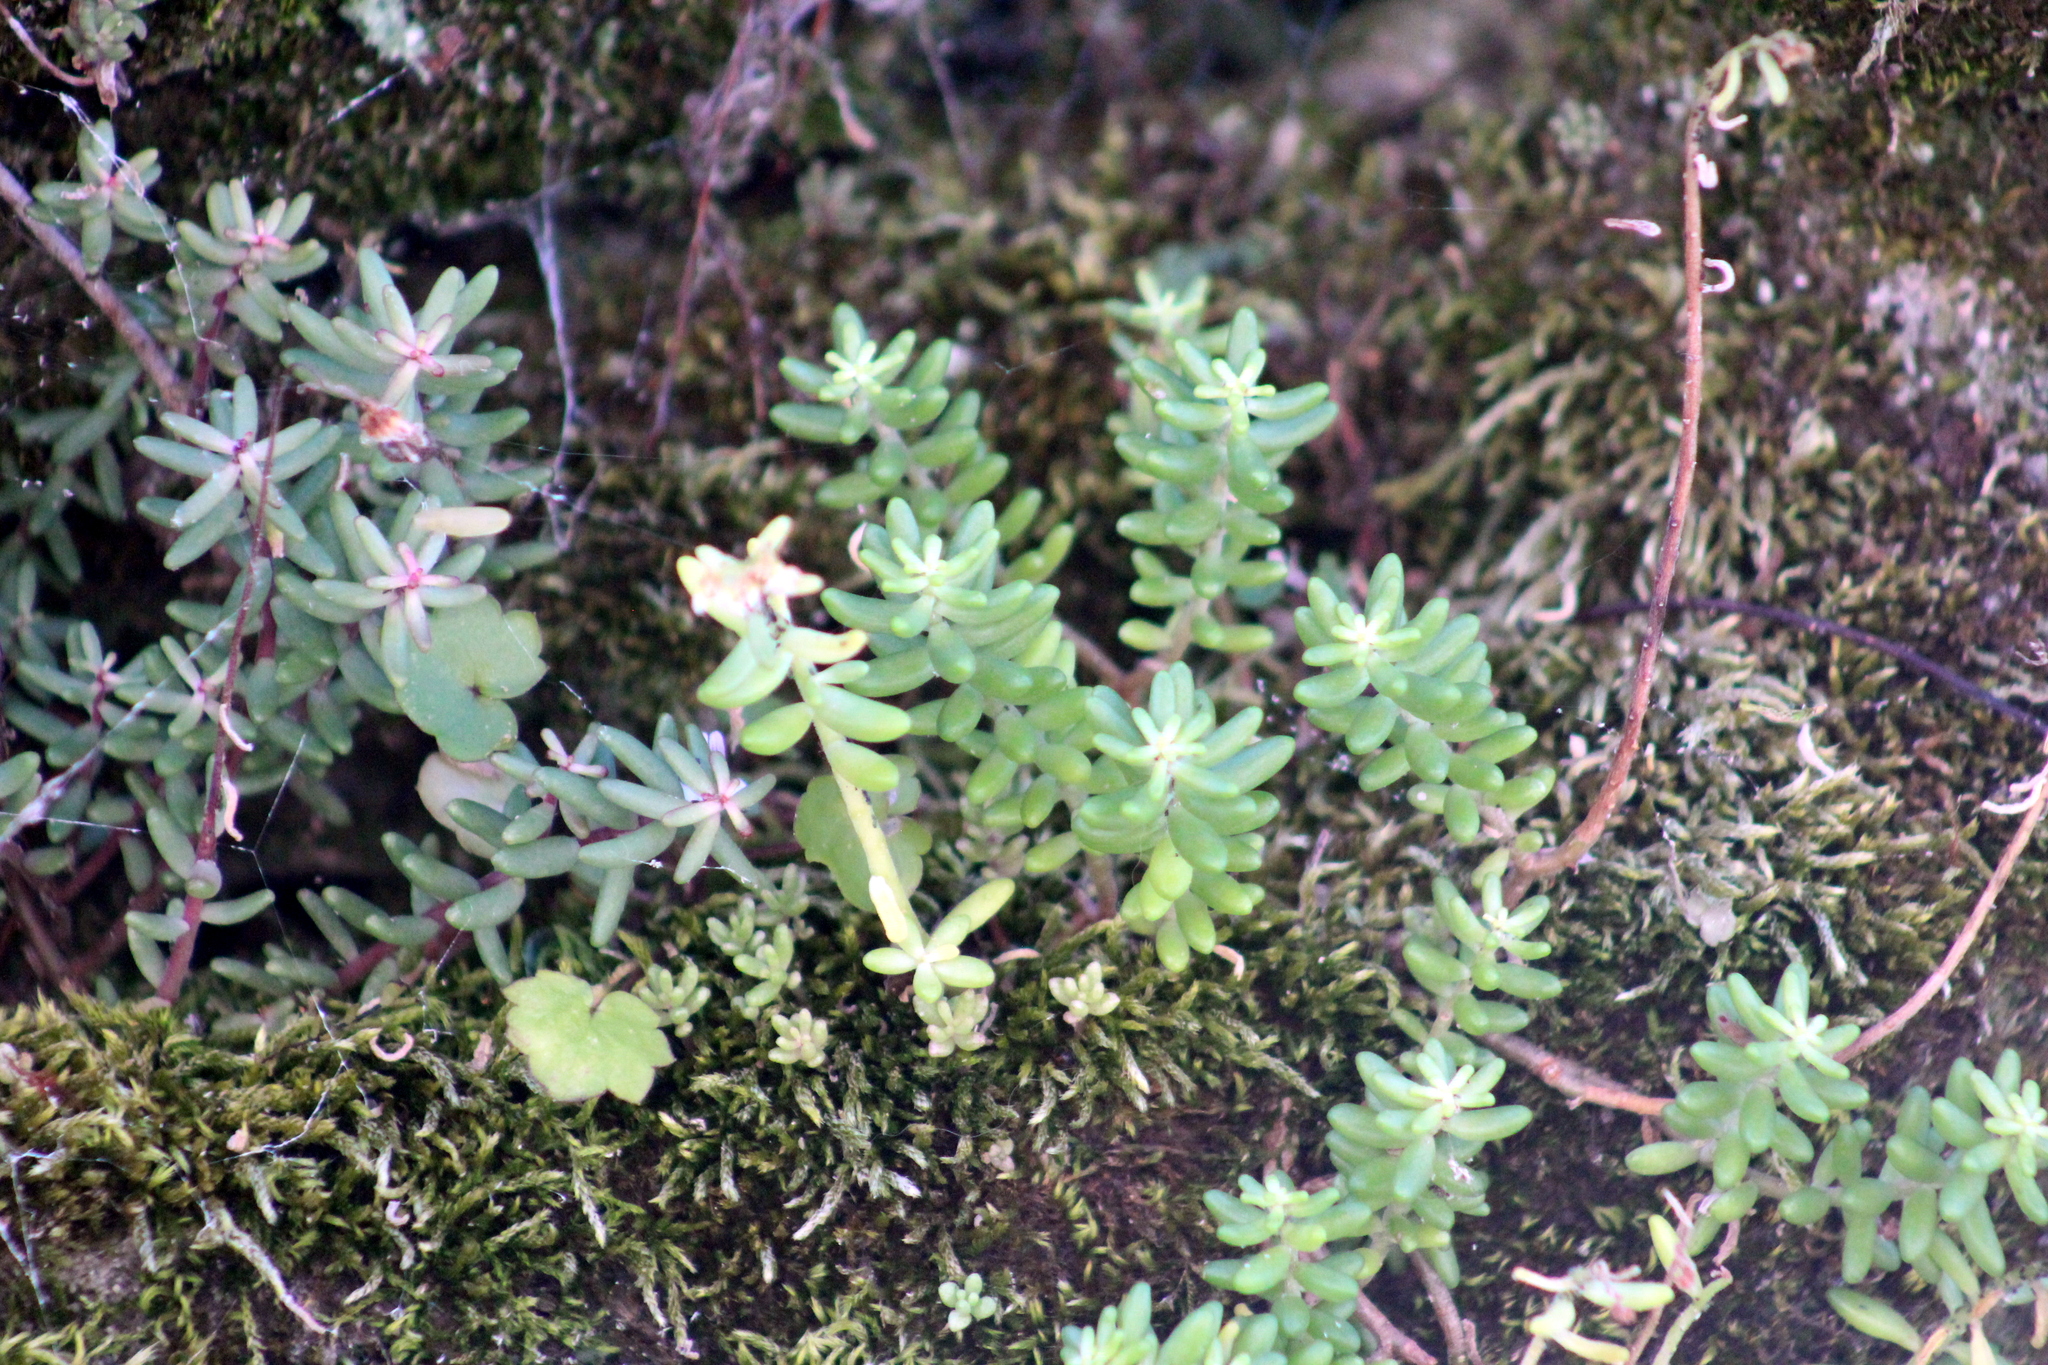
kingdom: Plantae
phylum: Tracheophyta
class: Magnoliopsida
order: Saxifragales
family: Crassulaceae
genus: Sedum
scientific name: Sedum album
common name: White stonecrop
